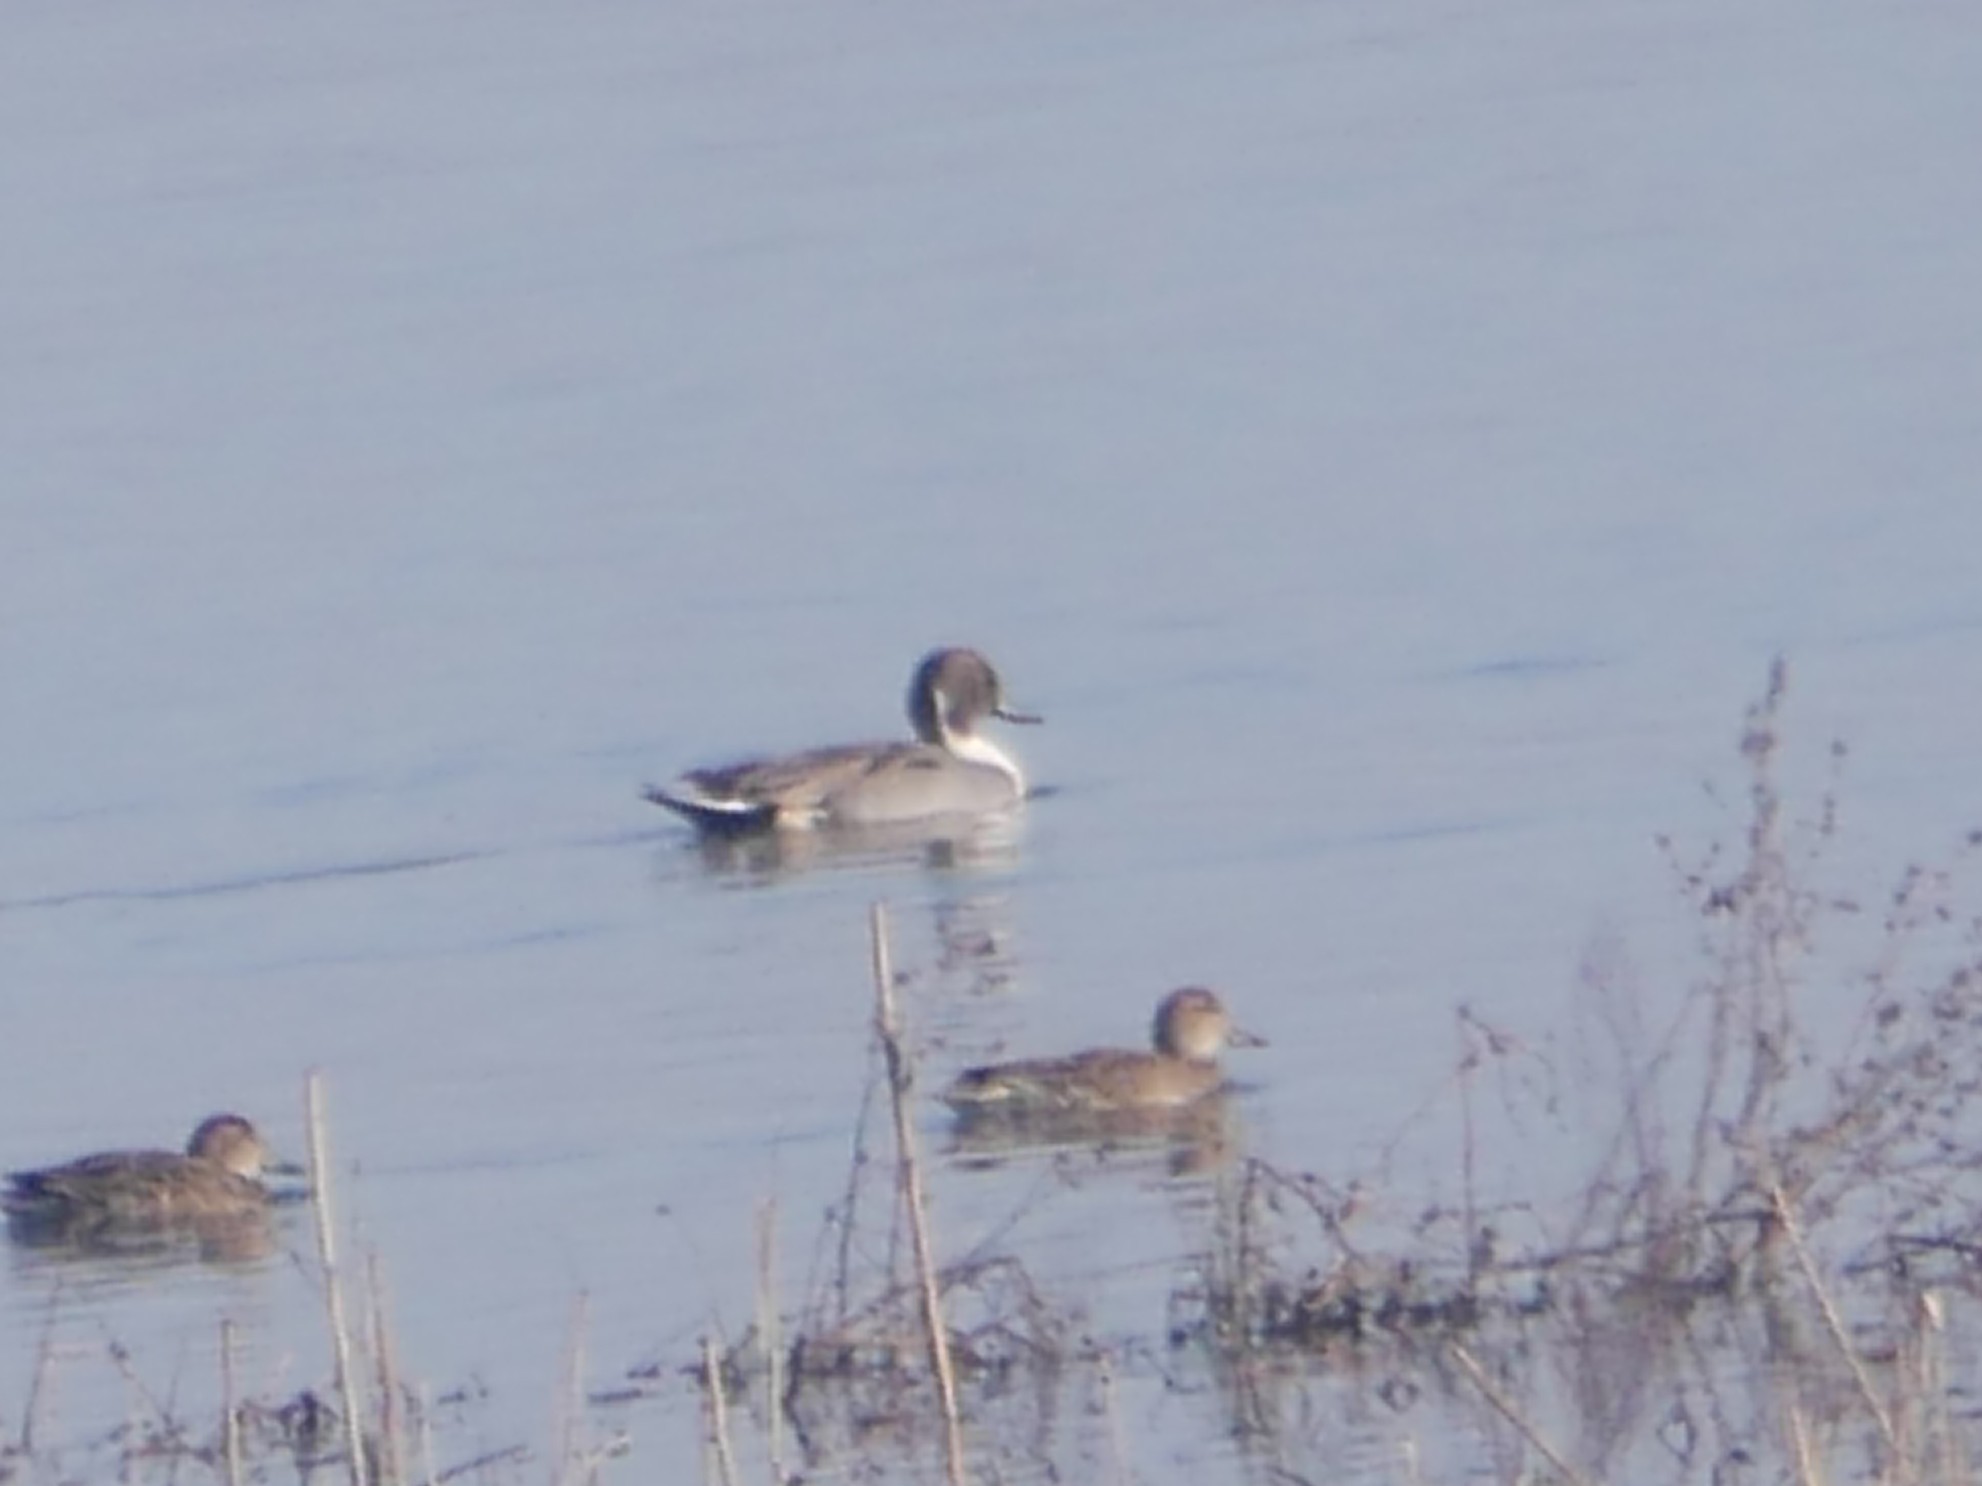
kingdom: Animalia
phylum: Chordata
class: Aves
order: Anseriformes
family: Anatidae
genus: Anas
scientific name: Anas acuta
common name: Northern pintail
